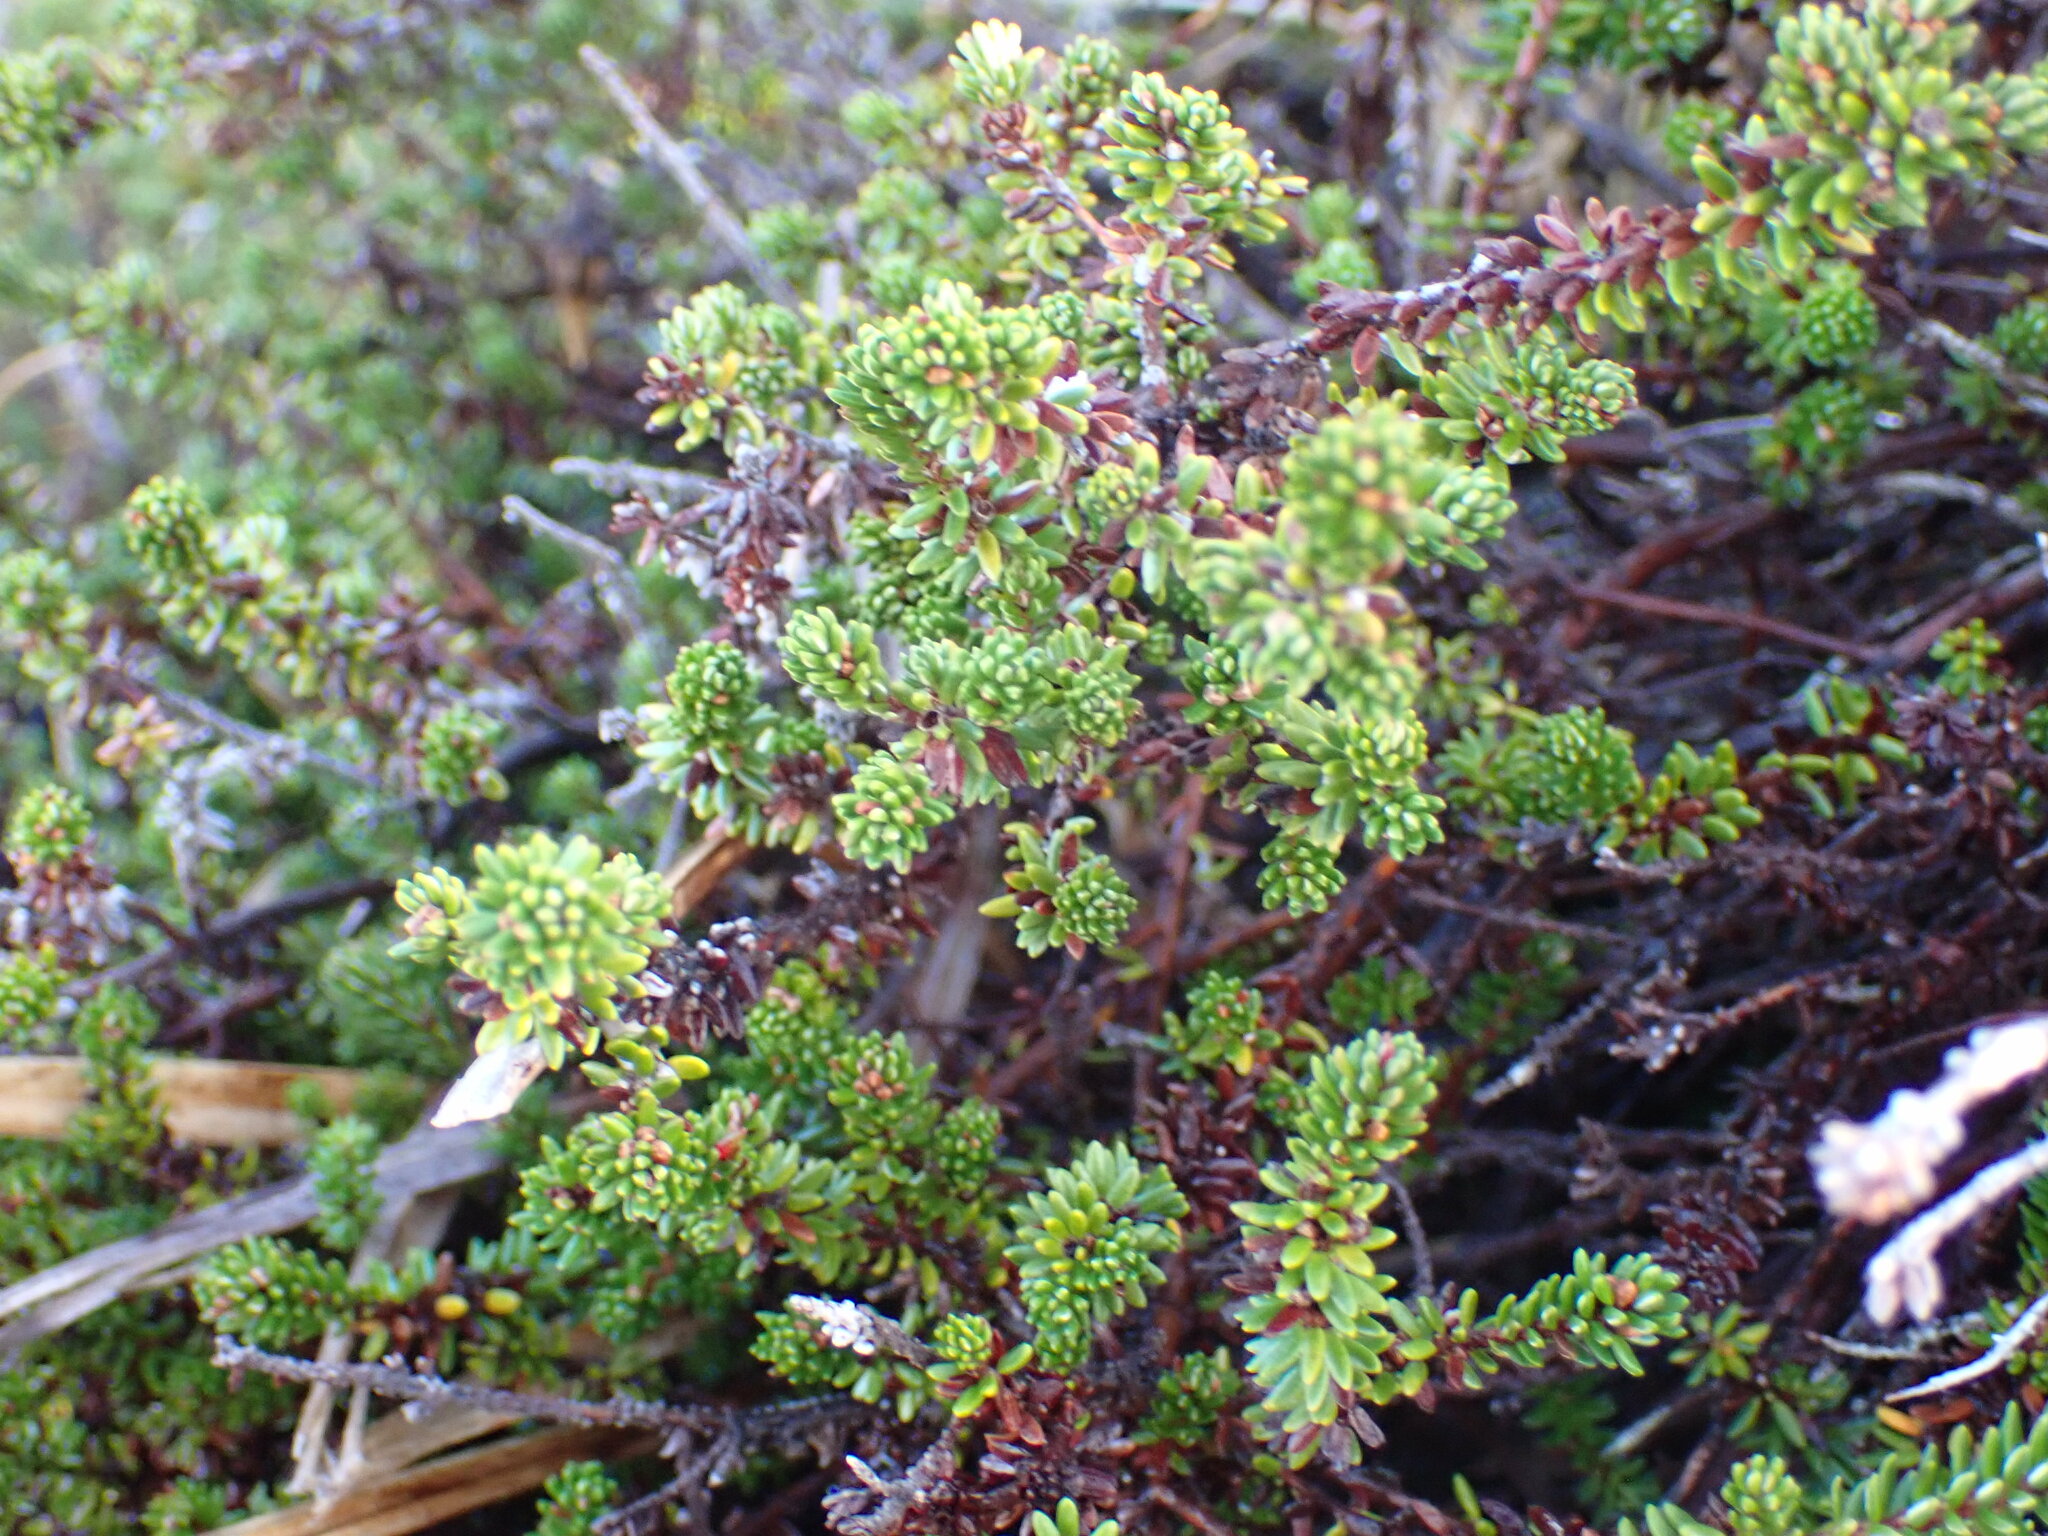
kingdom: Plantae
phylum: Tracheophyta
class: Magnoliopsida
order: Ericales
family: Ericaceae
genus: Empetrum
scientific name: Empetrum nigrum
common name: Black crowberry
